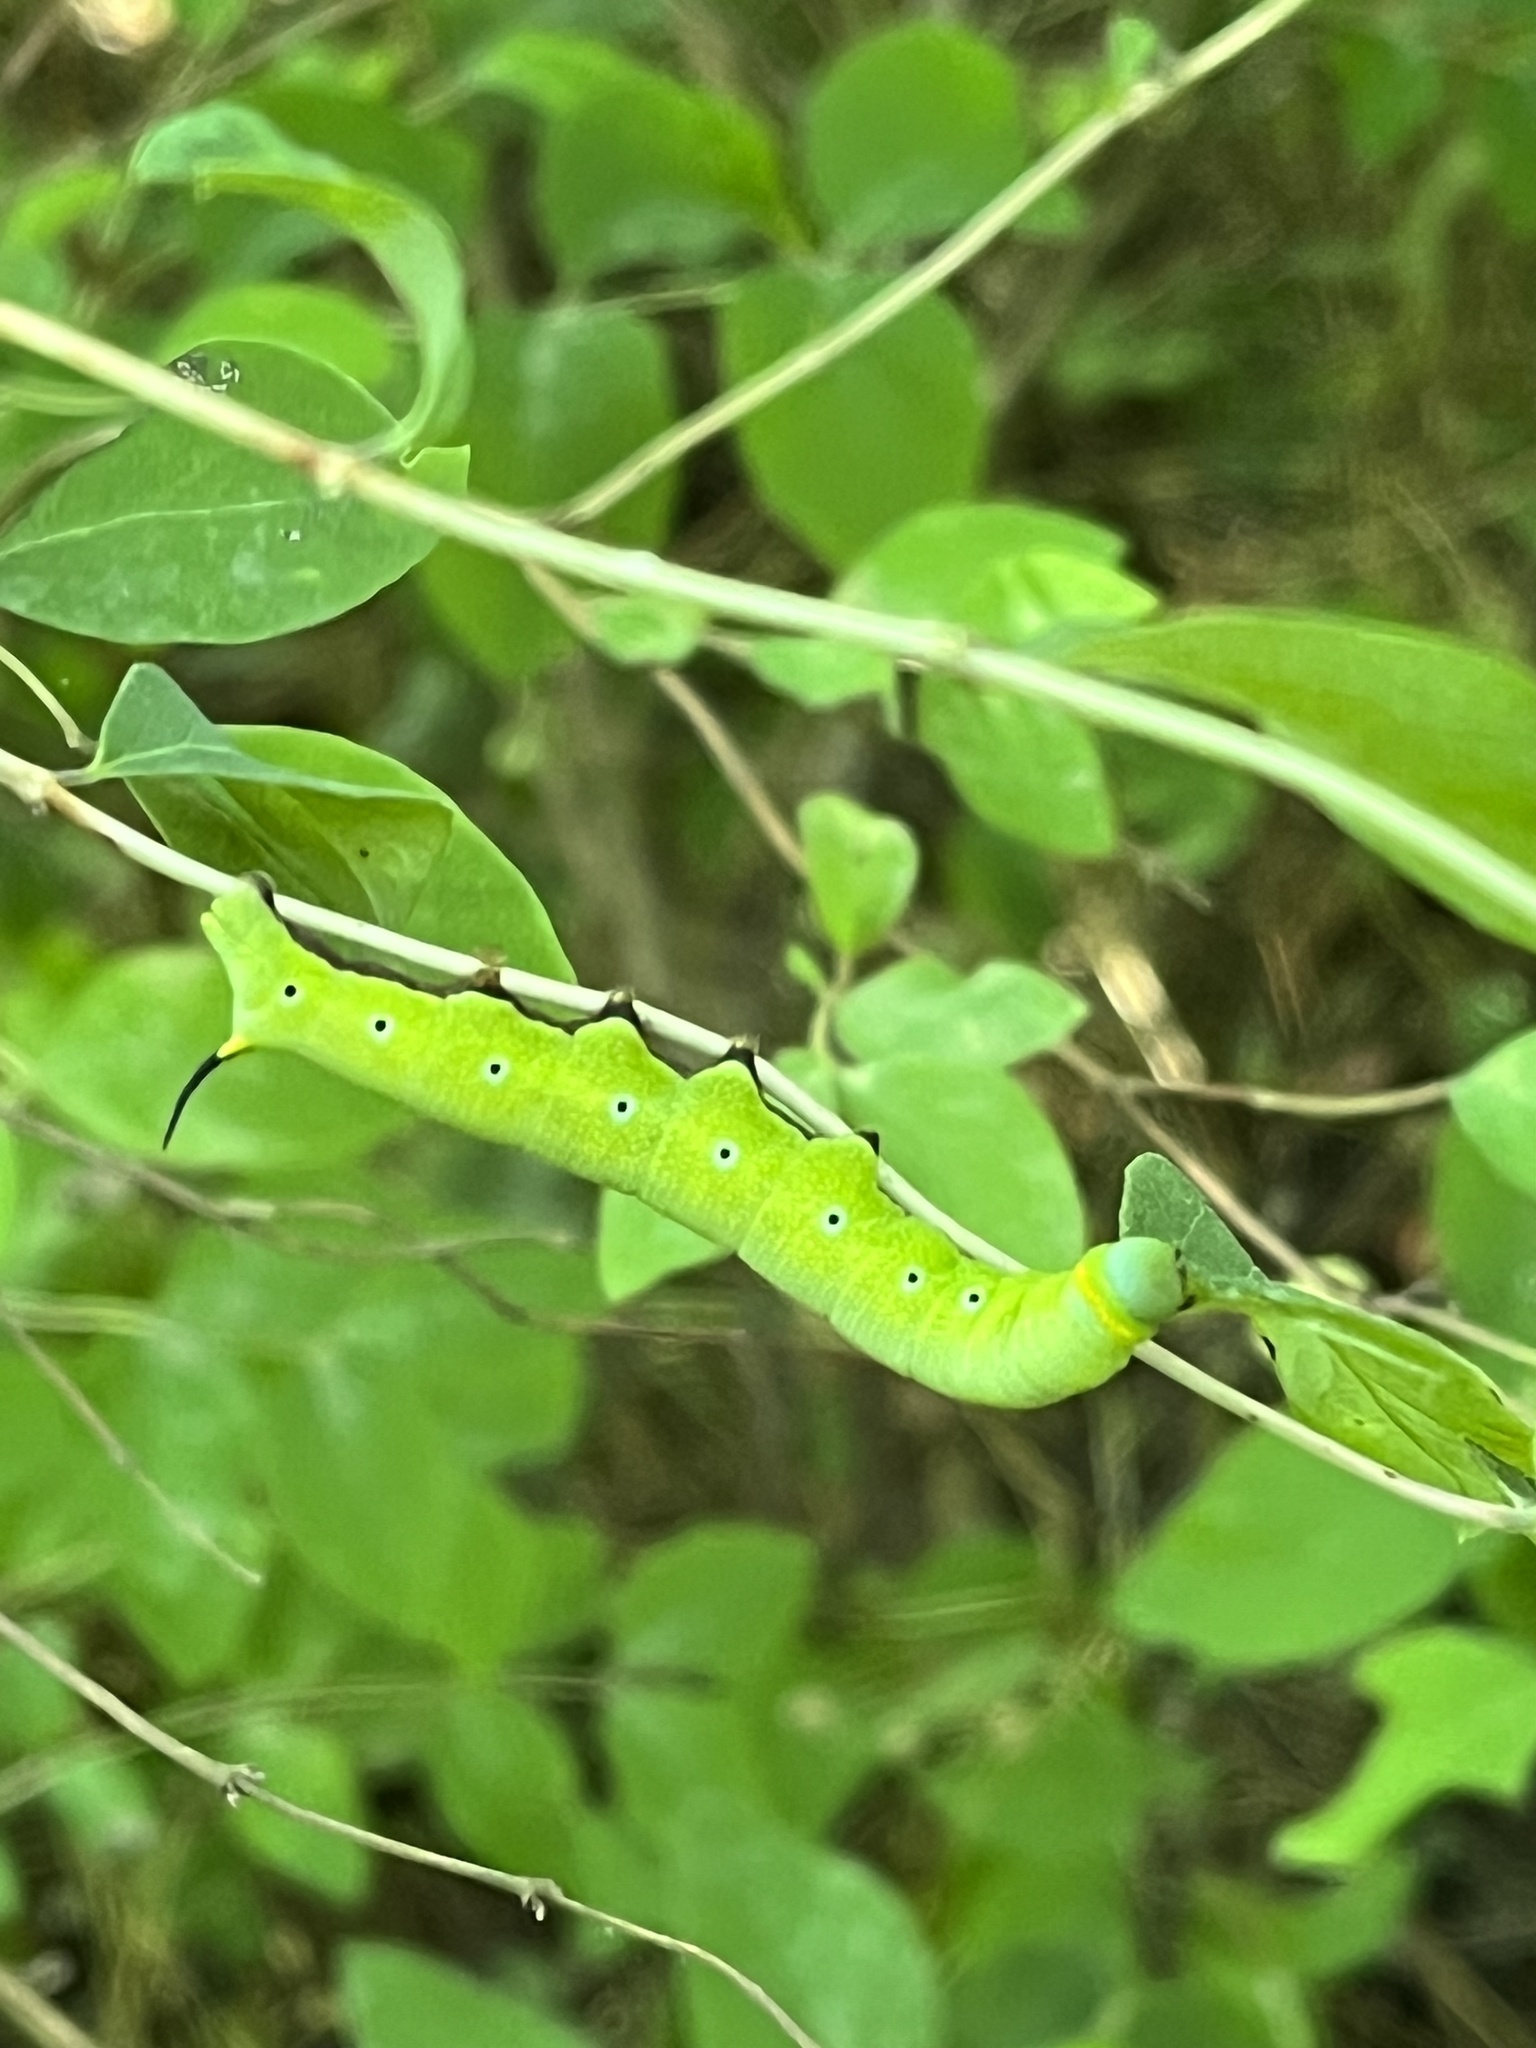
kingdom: Animalia
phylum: Arthropoda
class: Insecta
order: Lepidoptera
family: Sphingidae
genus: Hemaris
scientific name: Hemaris diffinis
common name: Bumblebee moth
